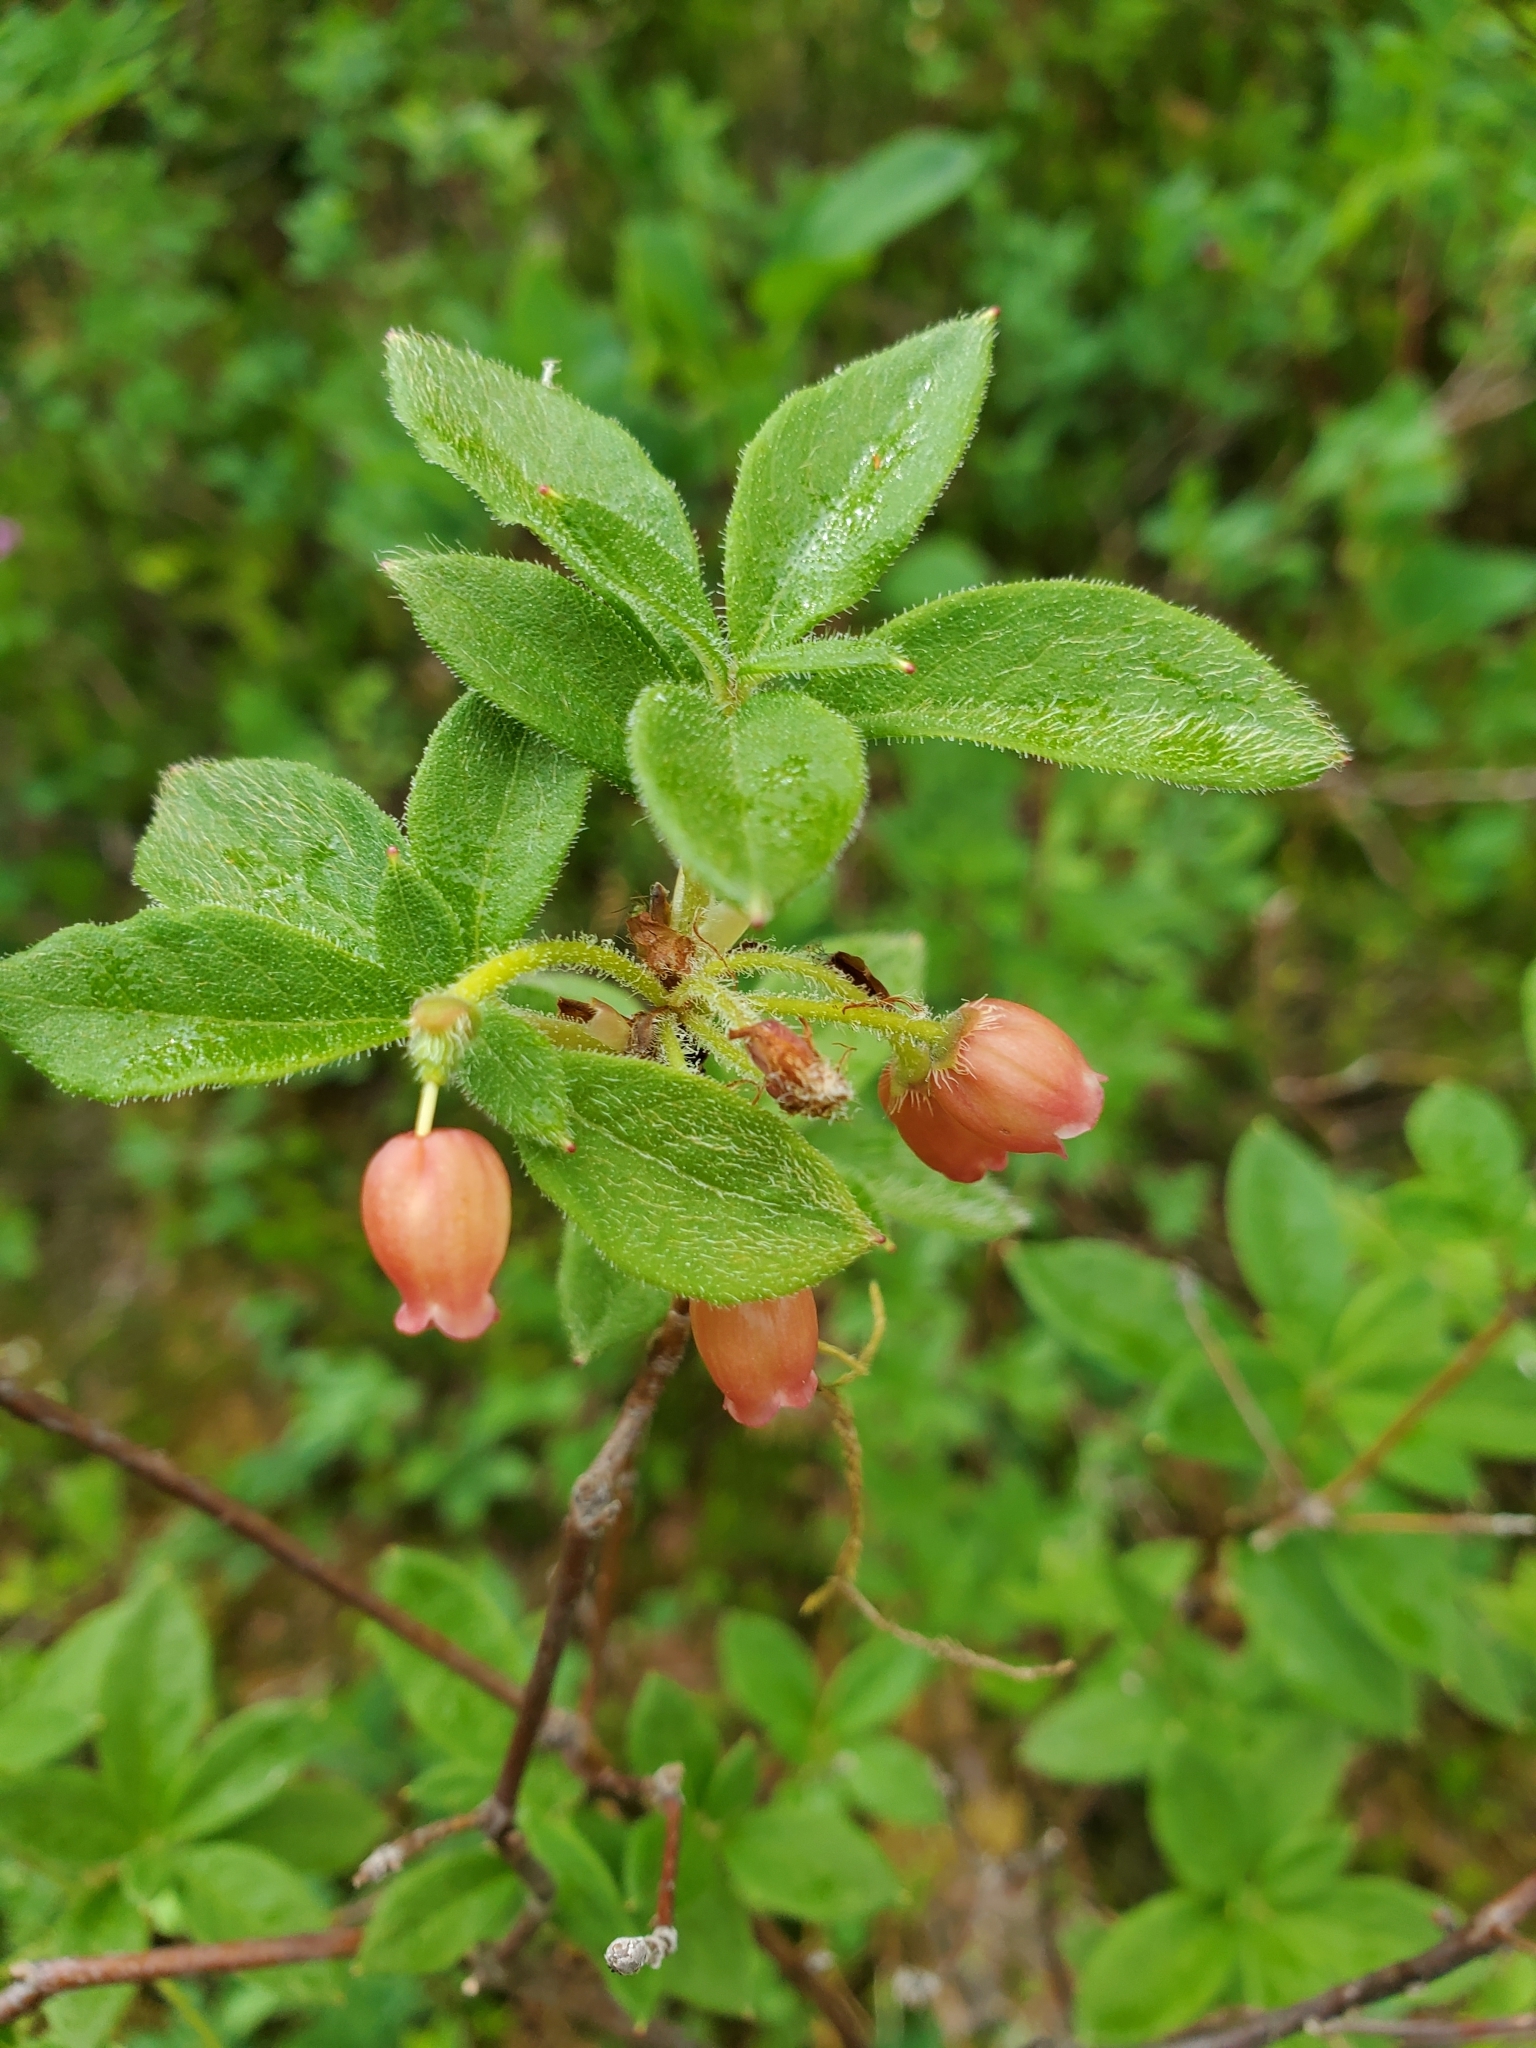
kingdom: Plantae
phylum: Tracheophyta
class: Magnoliopsida
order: Ericales
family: Ericaceae
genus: Rhododendron
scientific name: Rhododendron menziesii
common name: Pacific menziesia
